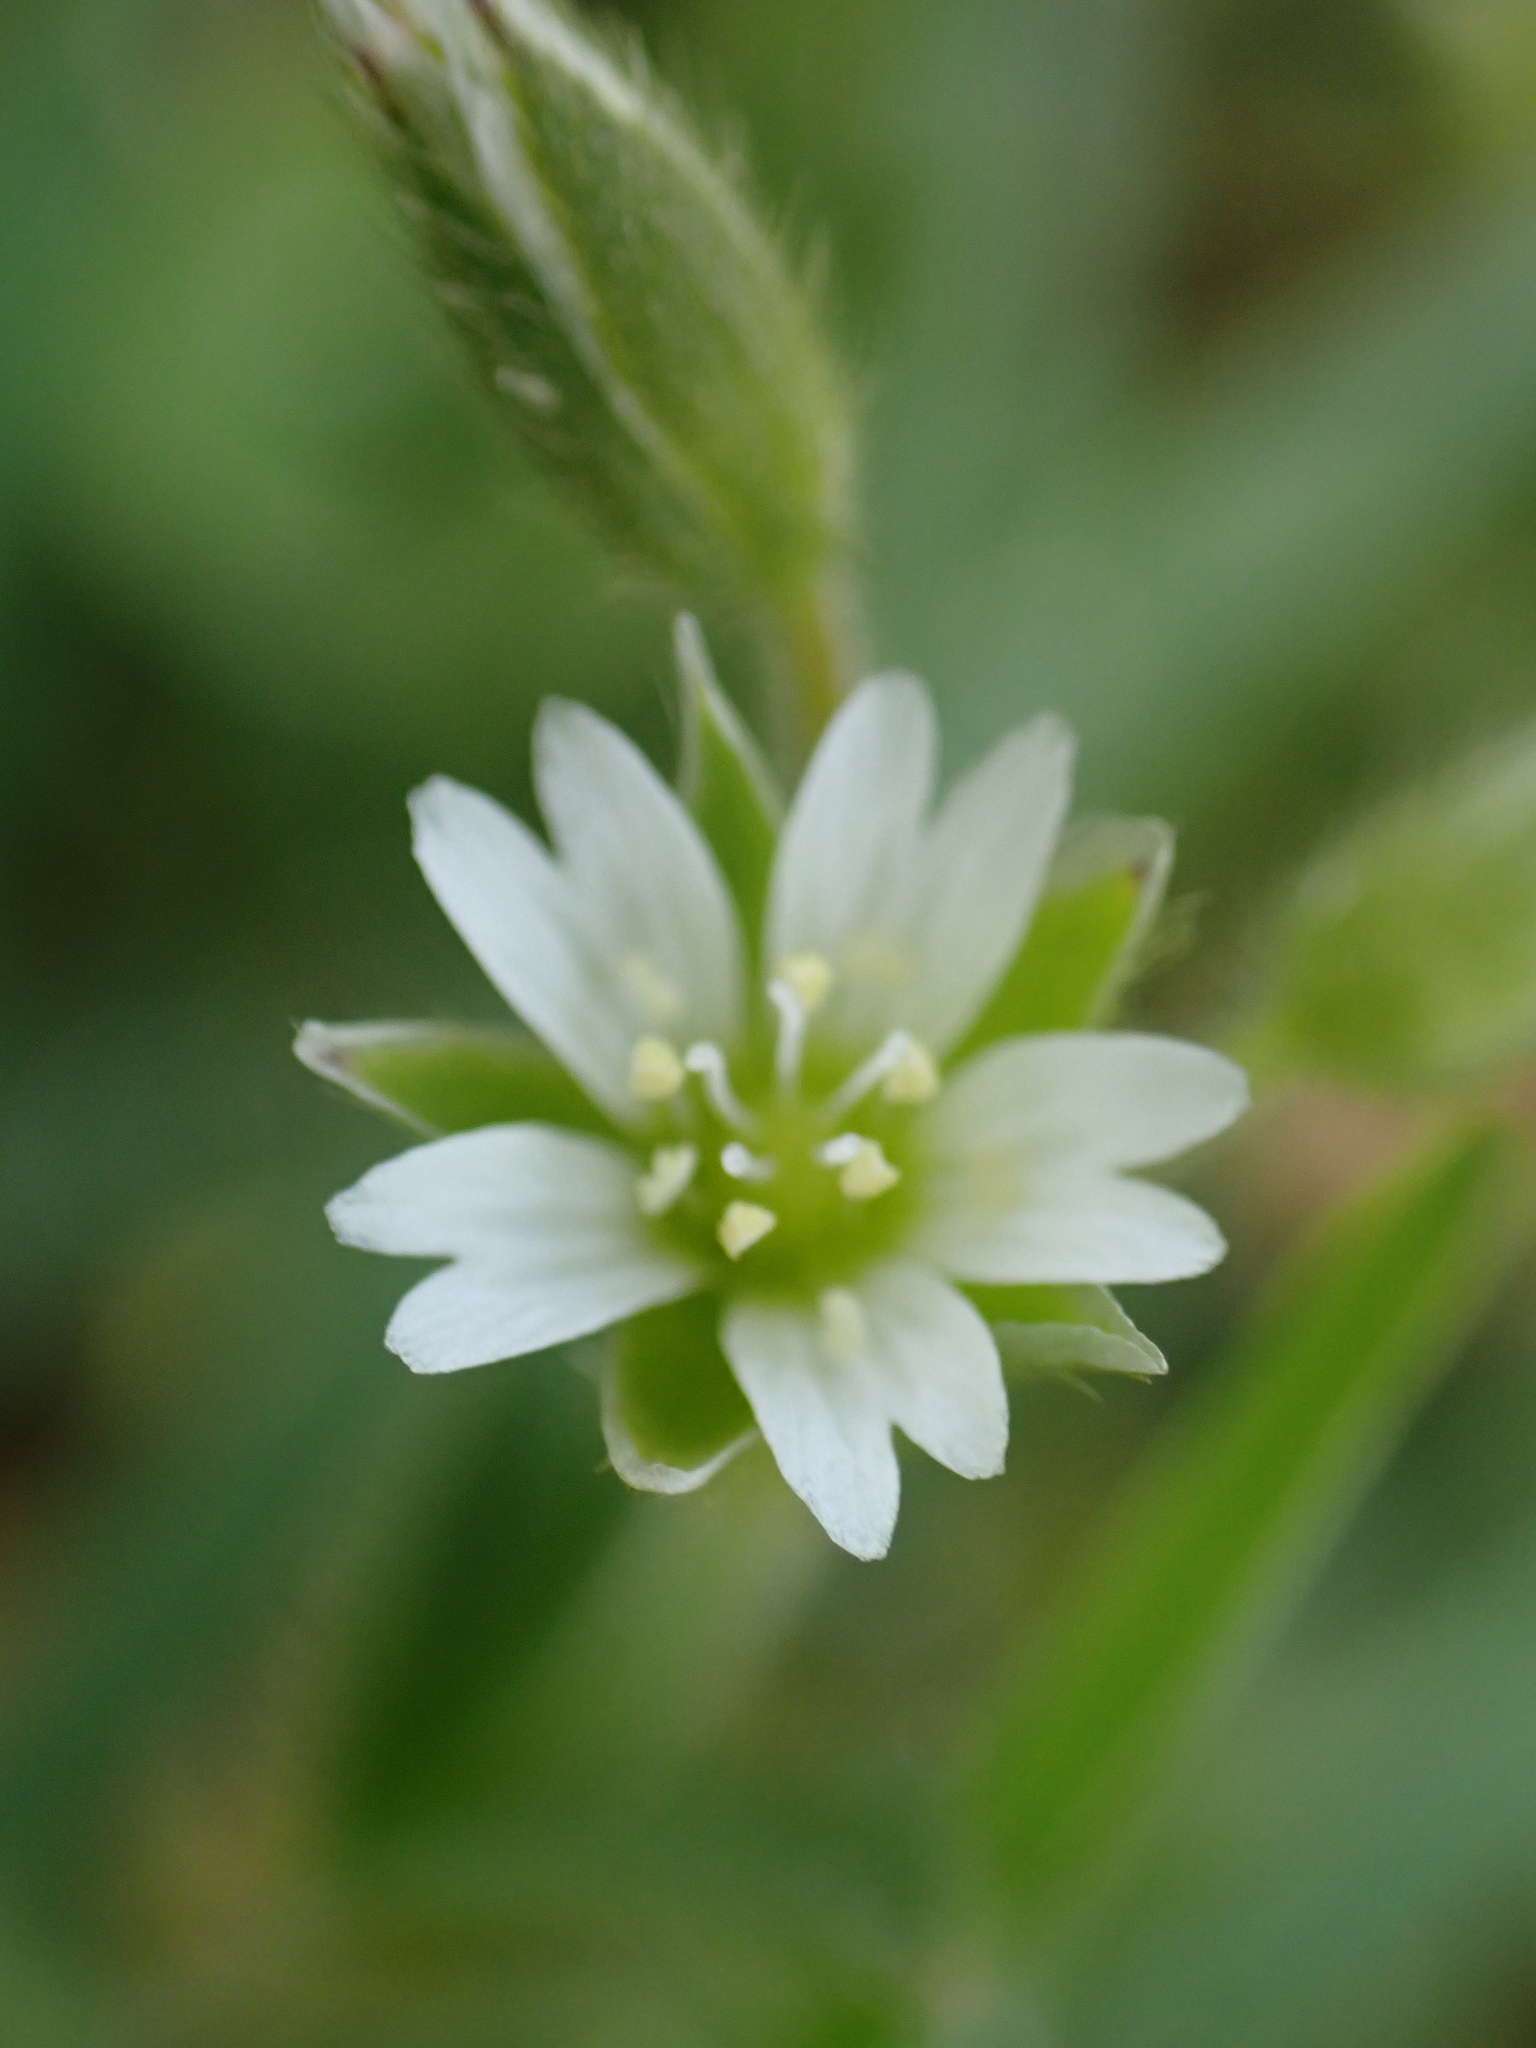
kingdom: Plantae
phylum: Tracheophyta
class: Magnoliopsida
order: Caryophyllales
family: Caryophyllaceae
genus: Cerastium
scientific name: Cerastium fontanum
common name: Common mouse-ear
